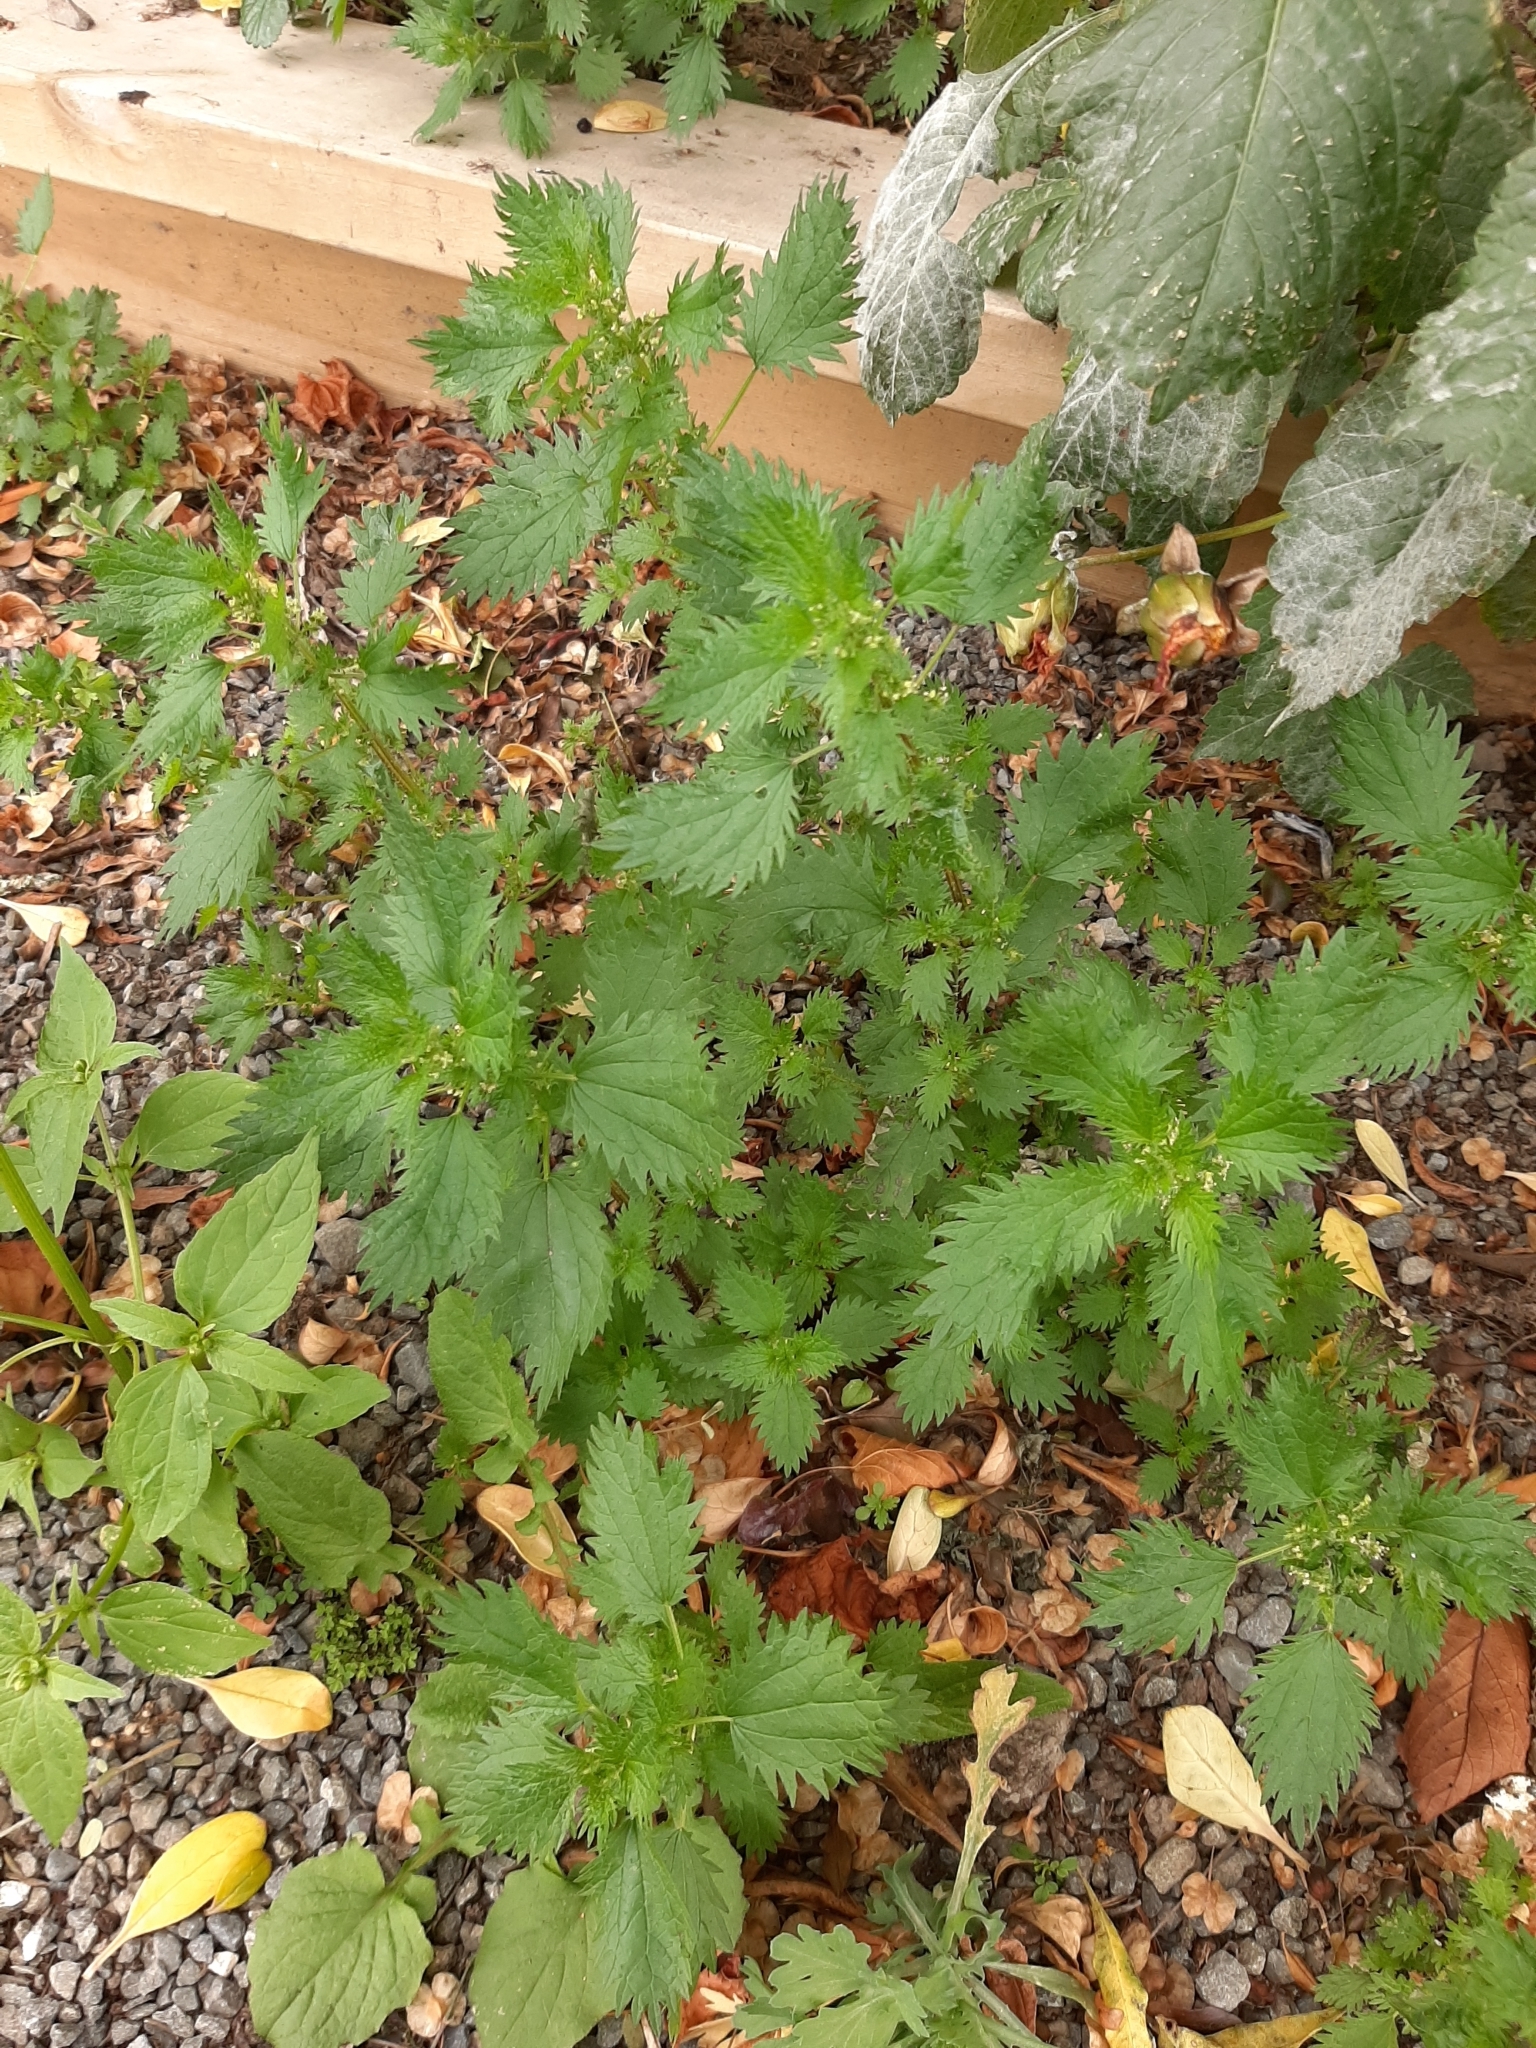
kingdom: Plantae
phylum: Tracheophyta
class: Magnoliopsida
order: Rosales
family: Urticaceae
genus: Urtica
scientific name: Urtica urens
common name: Dwarf nettle
